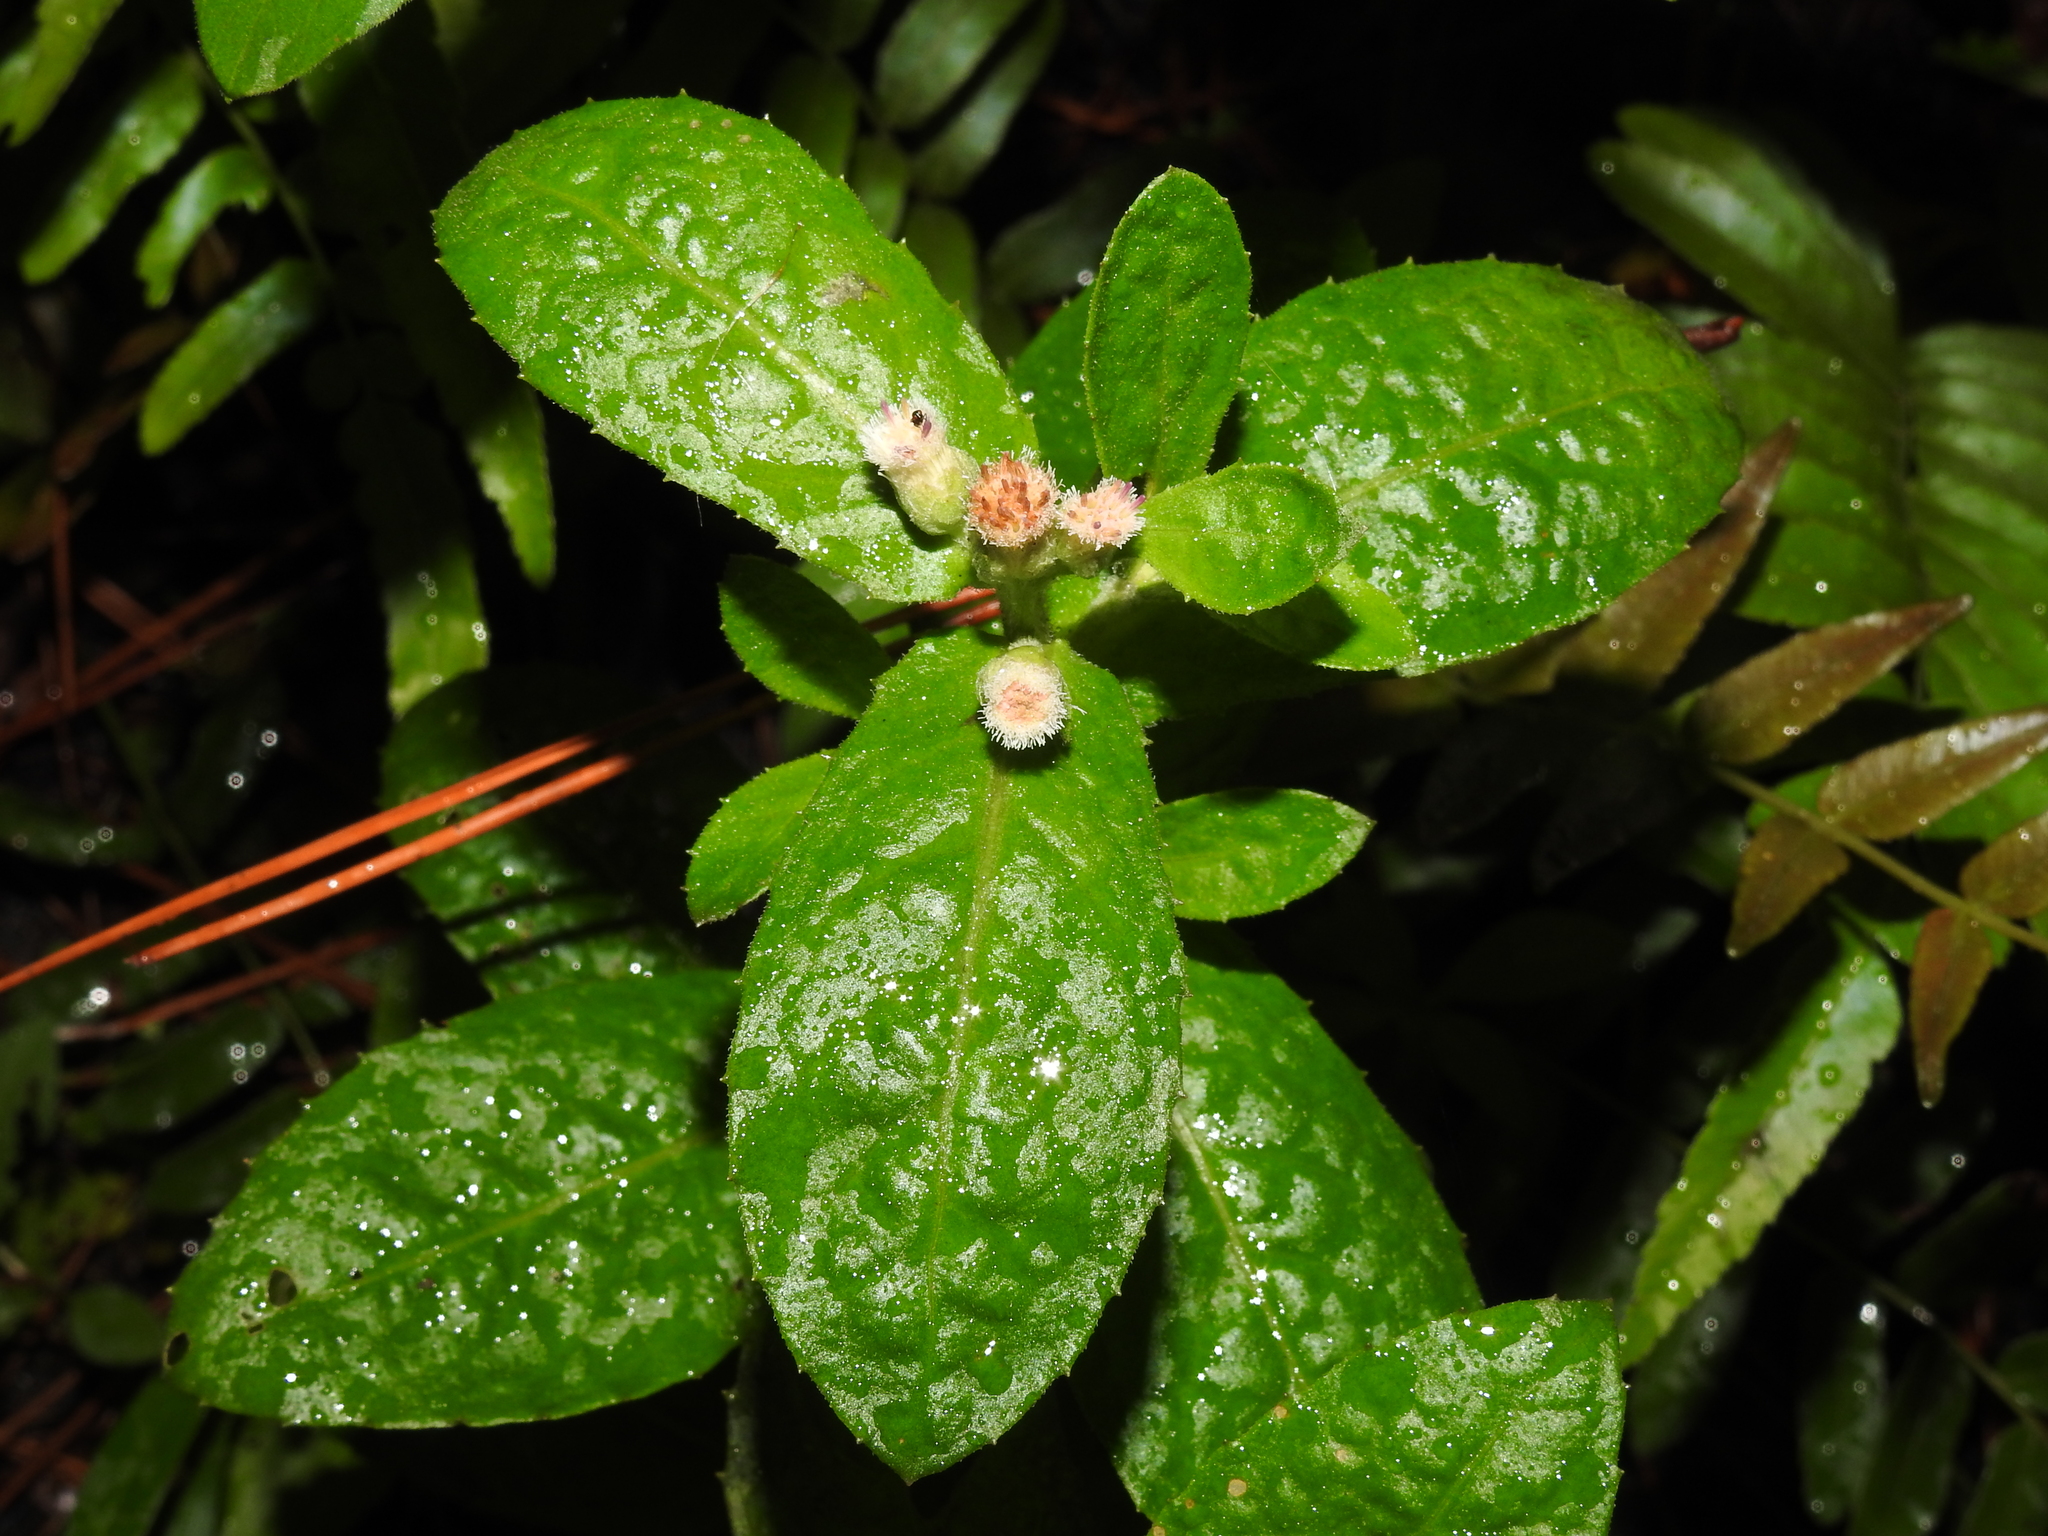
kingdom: Plantae
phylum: Tracheophyta
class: Magnoliopsida
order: Asterales
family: Asteraceae
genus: Pluchea
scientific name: Pluchea foetida
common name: Stinking camphorweed
